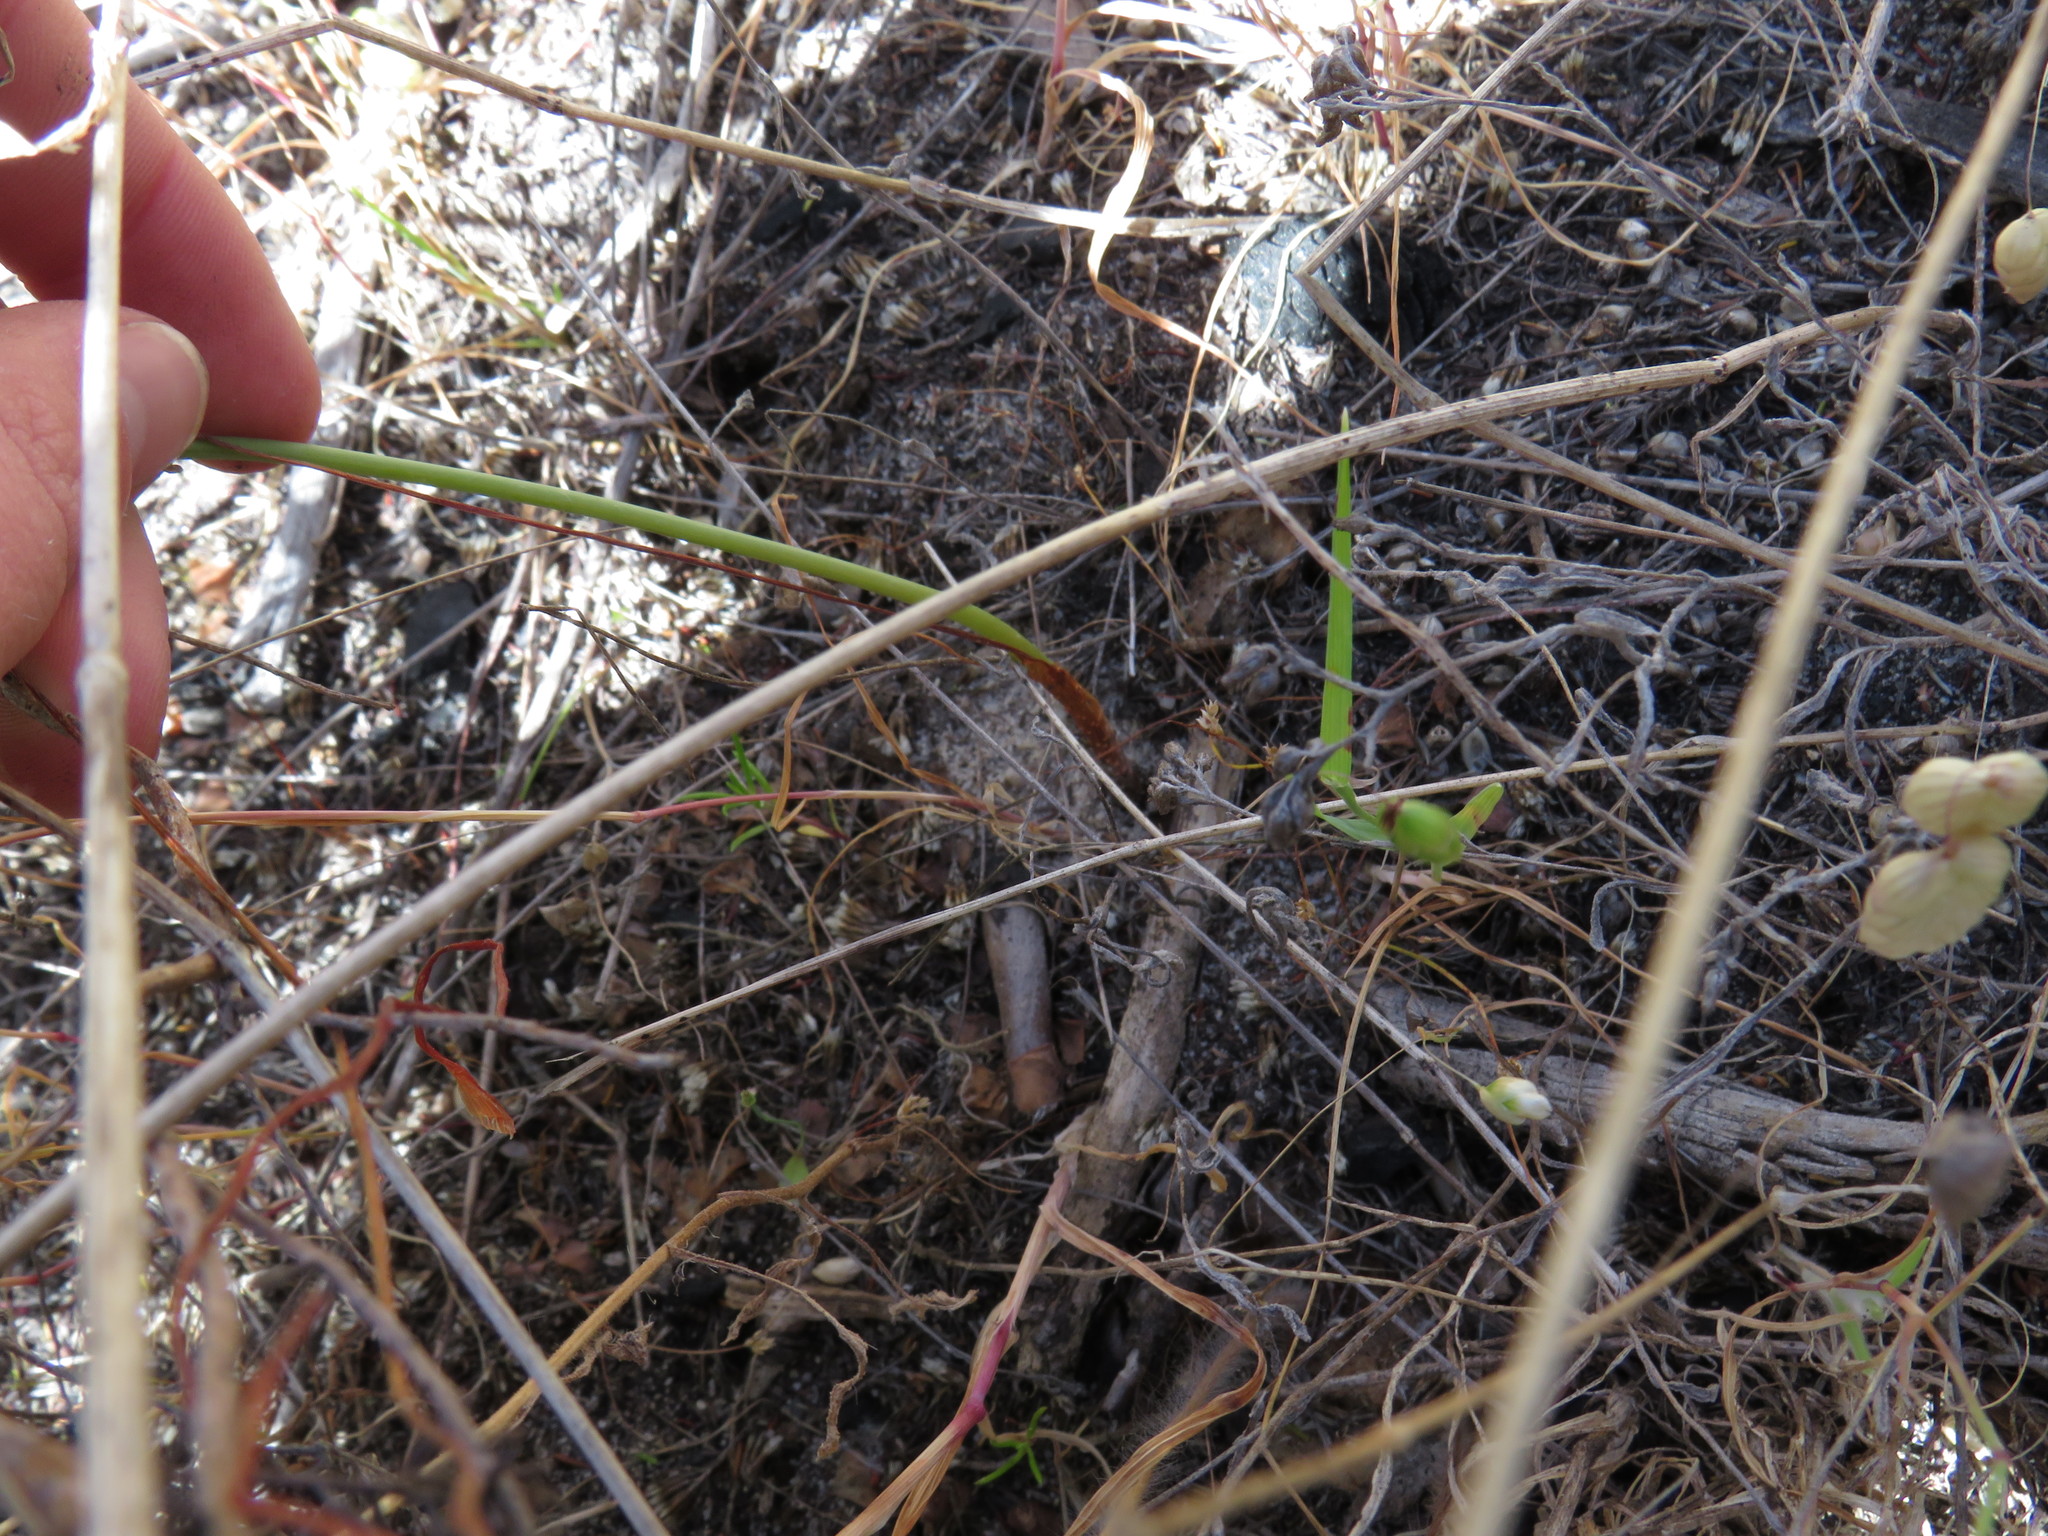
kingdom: Plantae
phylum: Tracheophyta
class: Liliopsida
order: Asparagales
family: Asparagaceae
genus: Albuca
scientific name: Albuca cooperi
